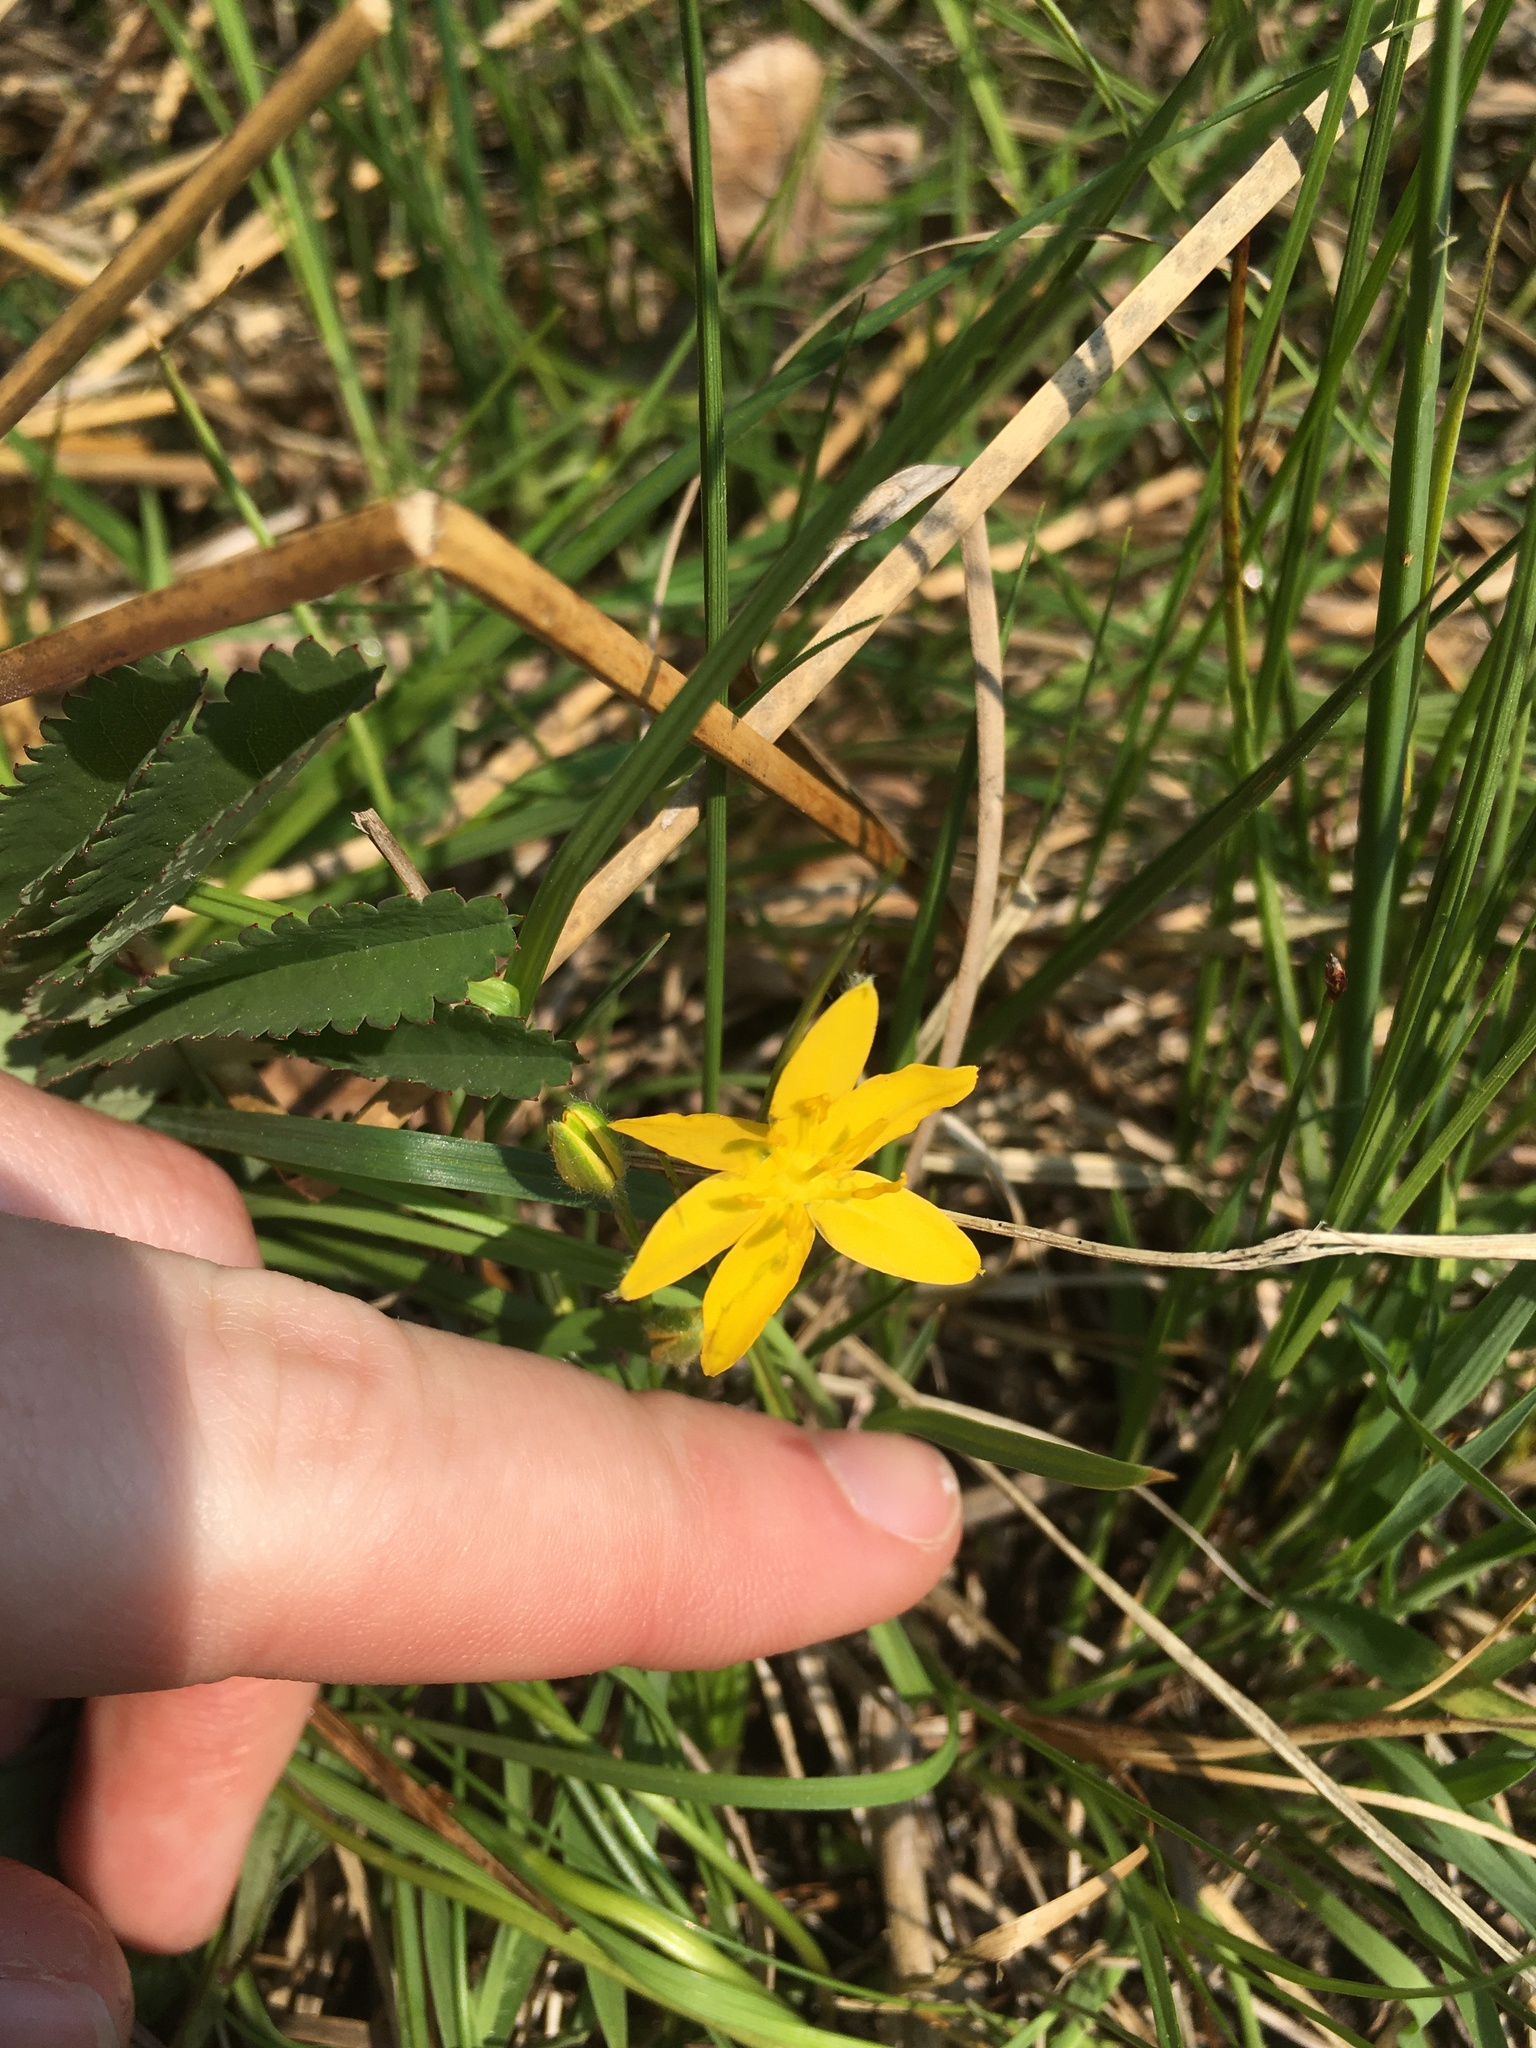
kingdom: Plantae
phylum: Tracheophyta
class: Liliopsida
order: Asparagales
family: Hypoxidaceae
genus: Hypoxis
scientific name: Hypoxis hirsuta
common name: Common goldstar
